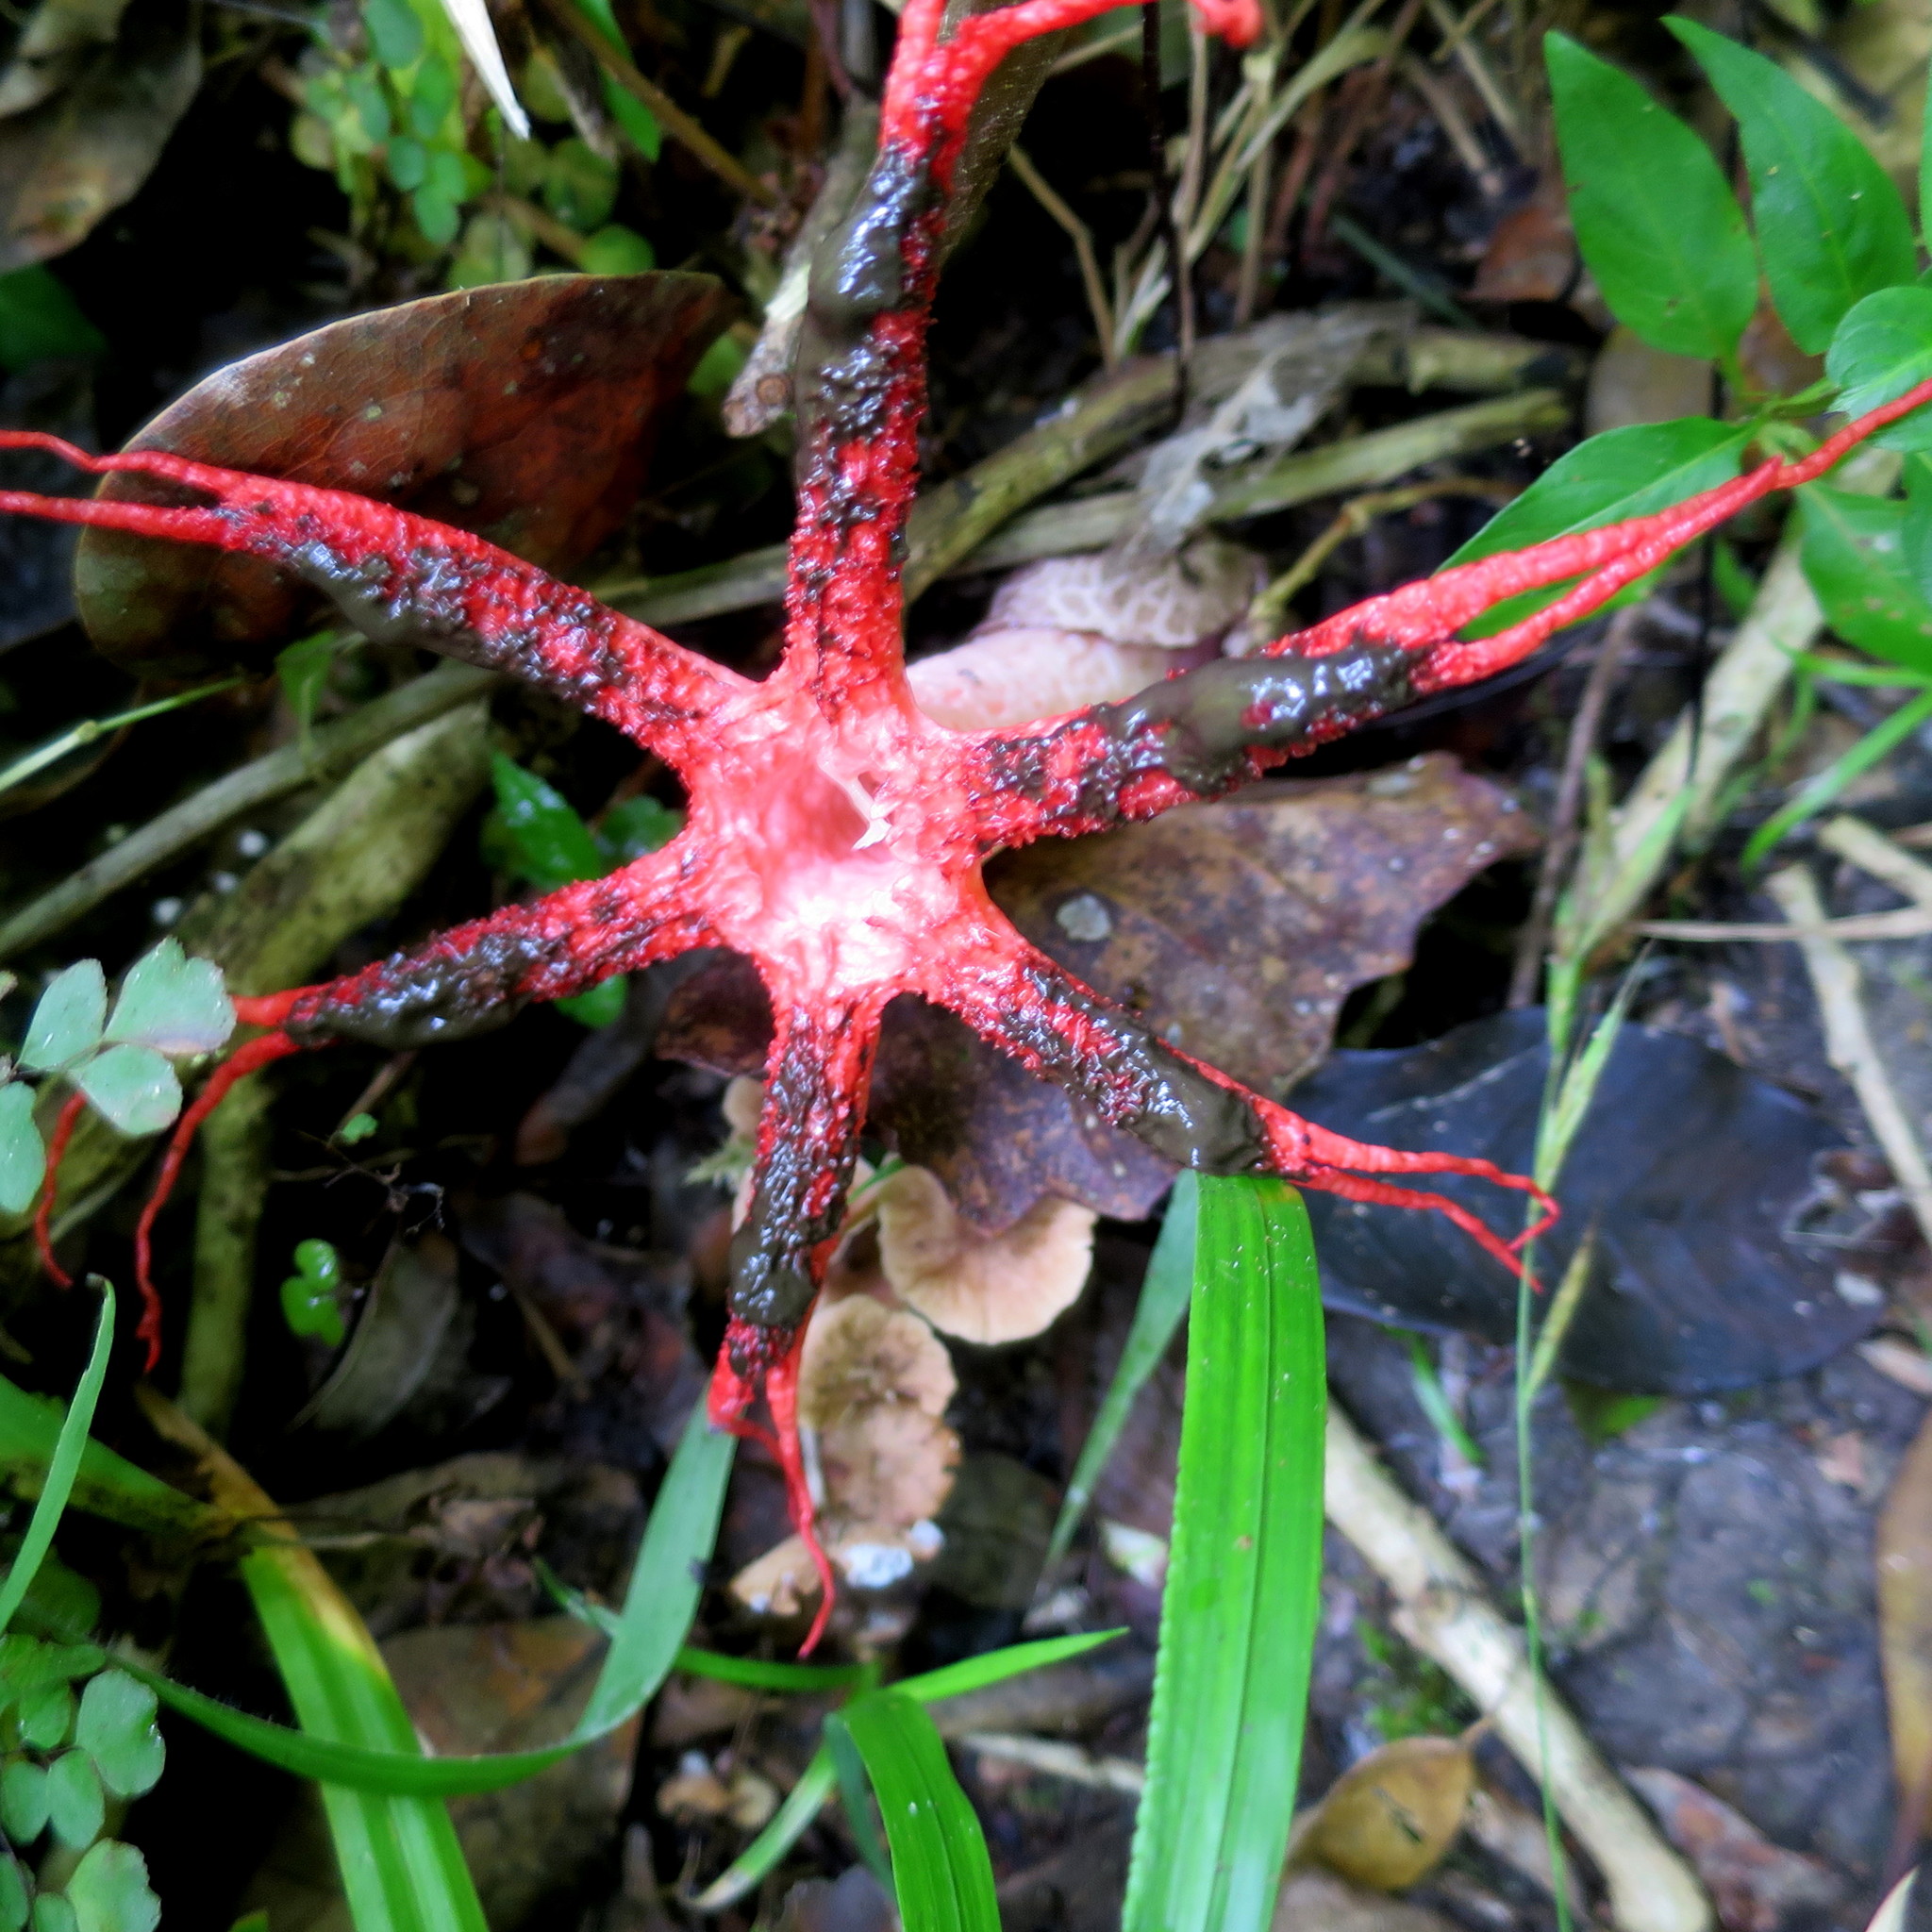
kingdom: Fungi
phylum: Basidiomycota
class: Agaricomycetes
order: Phallales
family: Phallaceae
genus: Clathrus
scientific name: Clathrus archeri
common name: Devil's fingers
